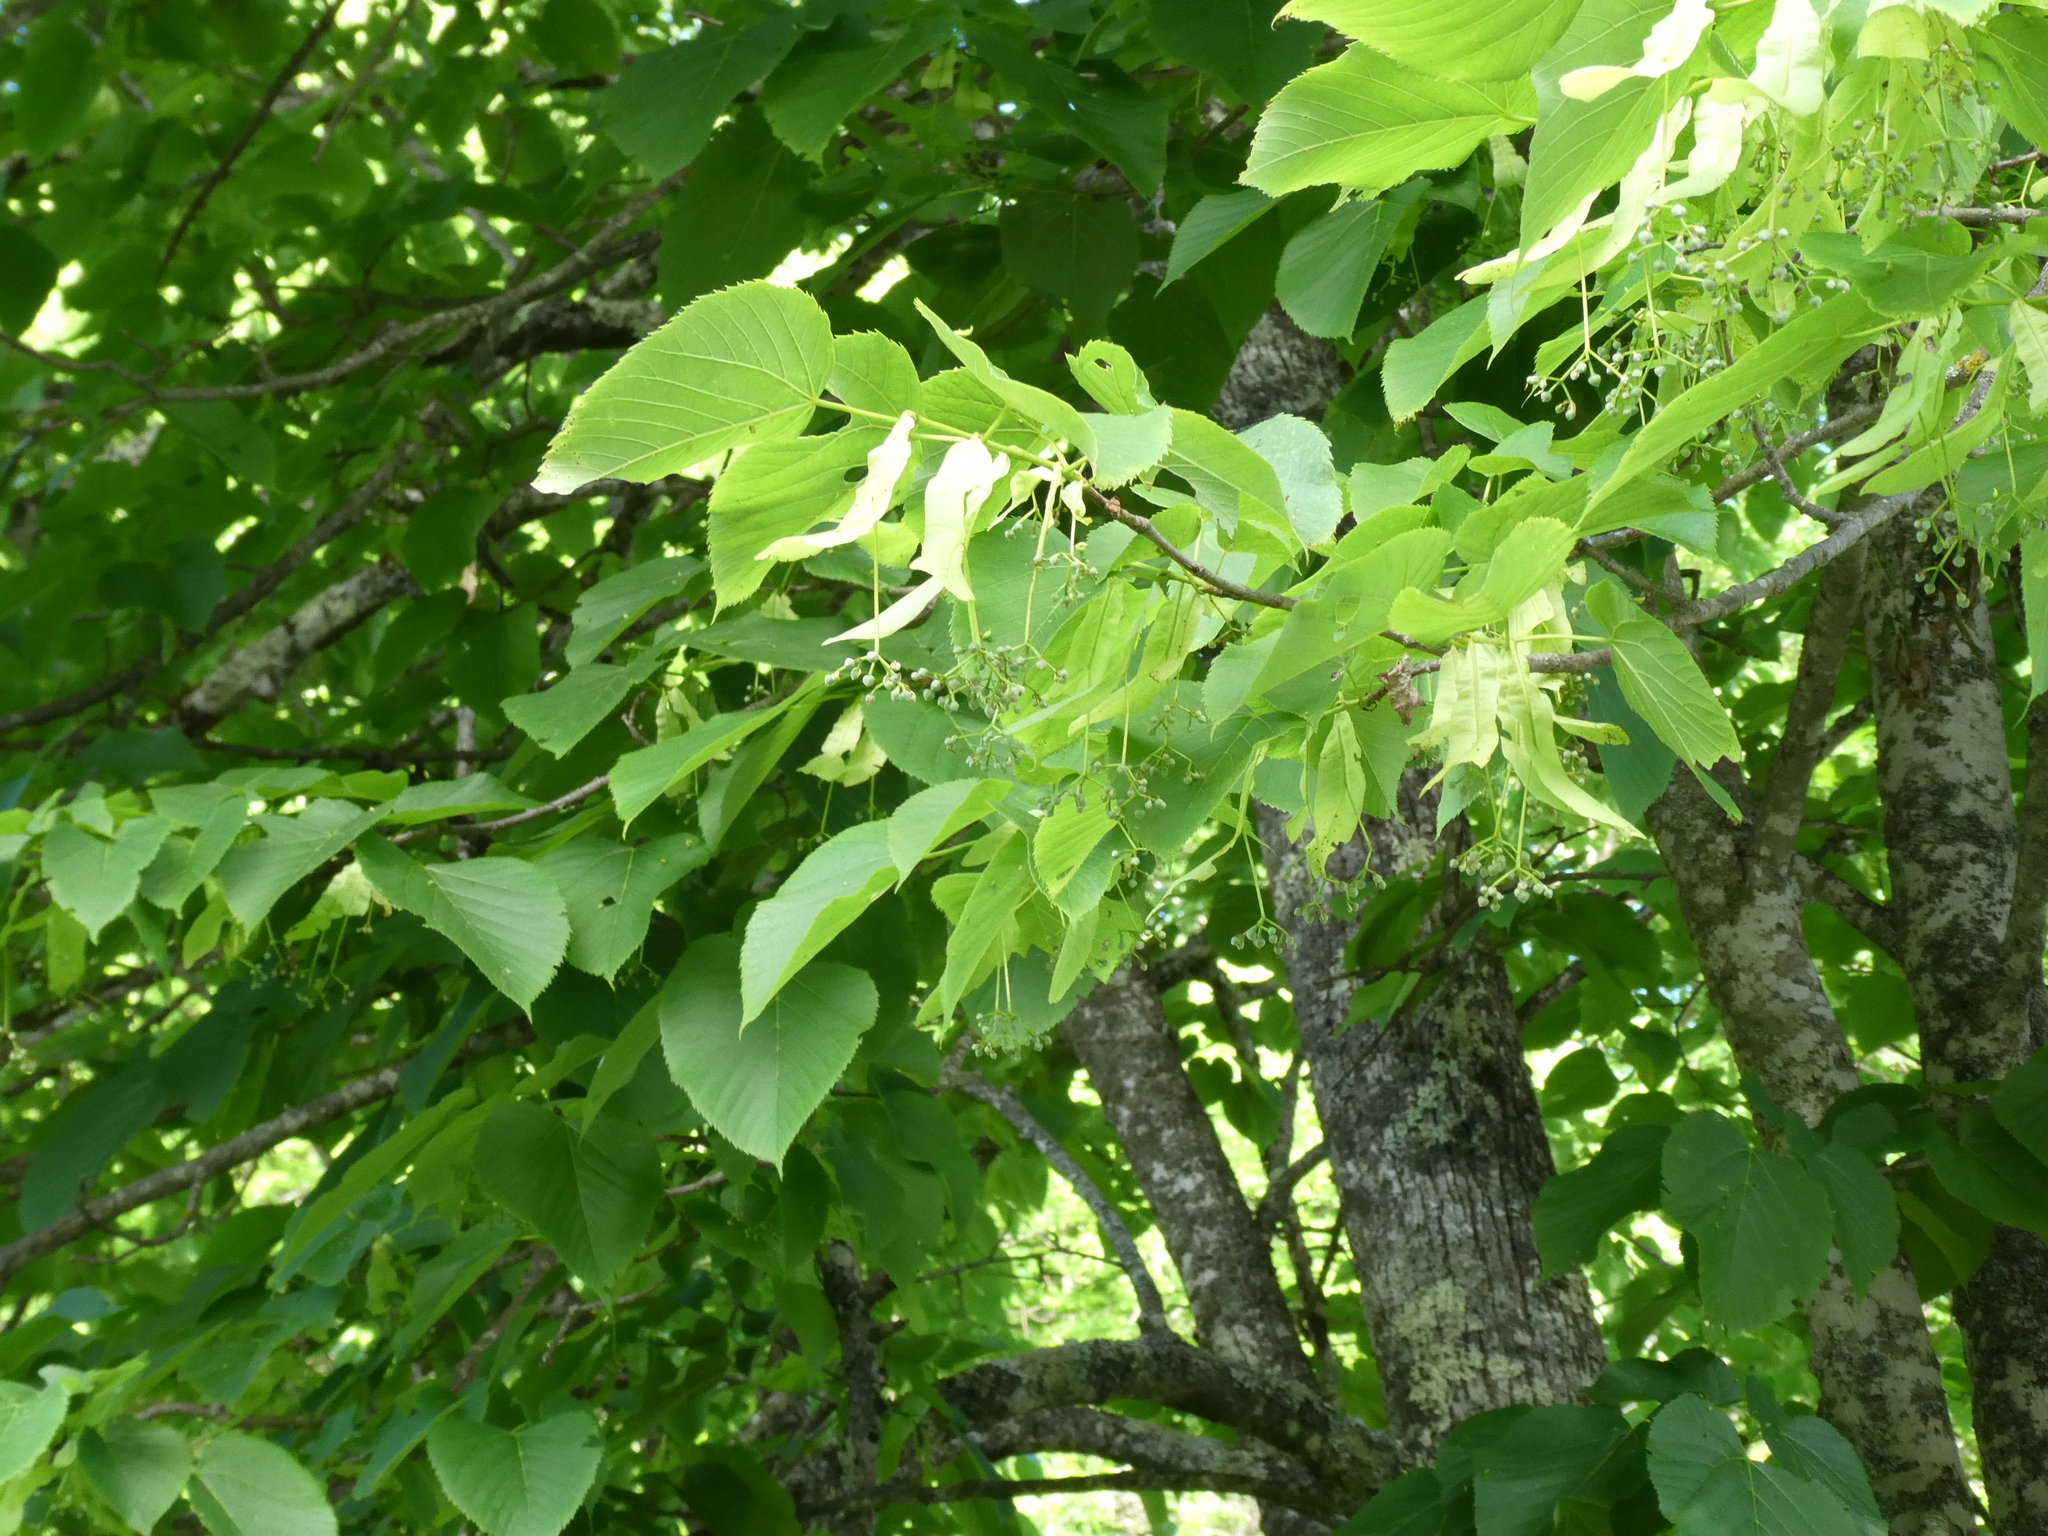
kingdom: Plantae
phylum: Tracheophyta
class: Magnoliopsida
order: Malvales
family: Malvaceae
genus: Tilia
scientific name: Tilia americana
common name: Basswood
